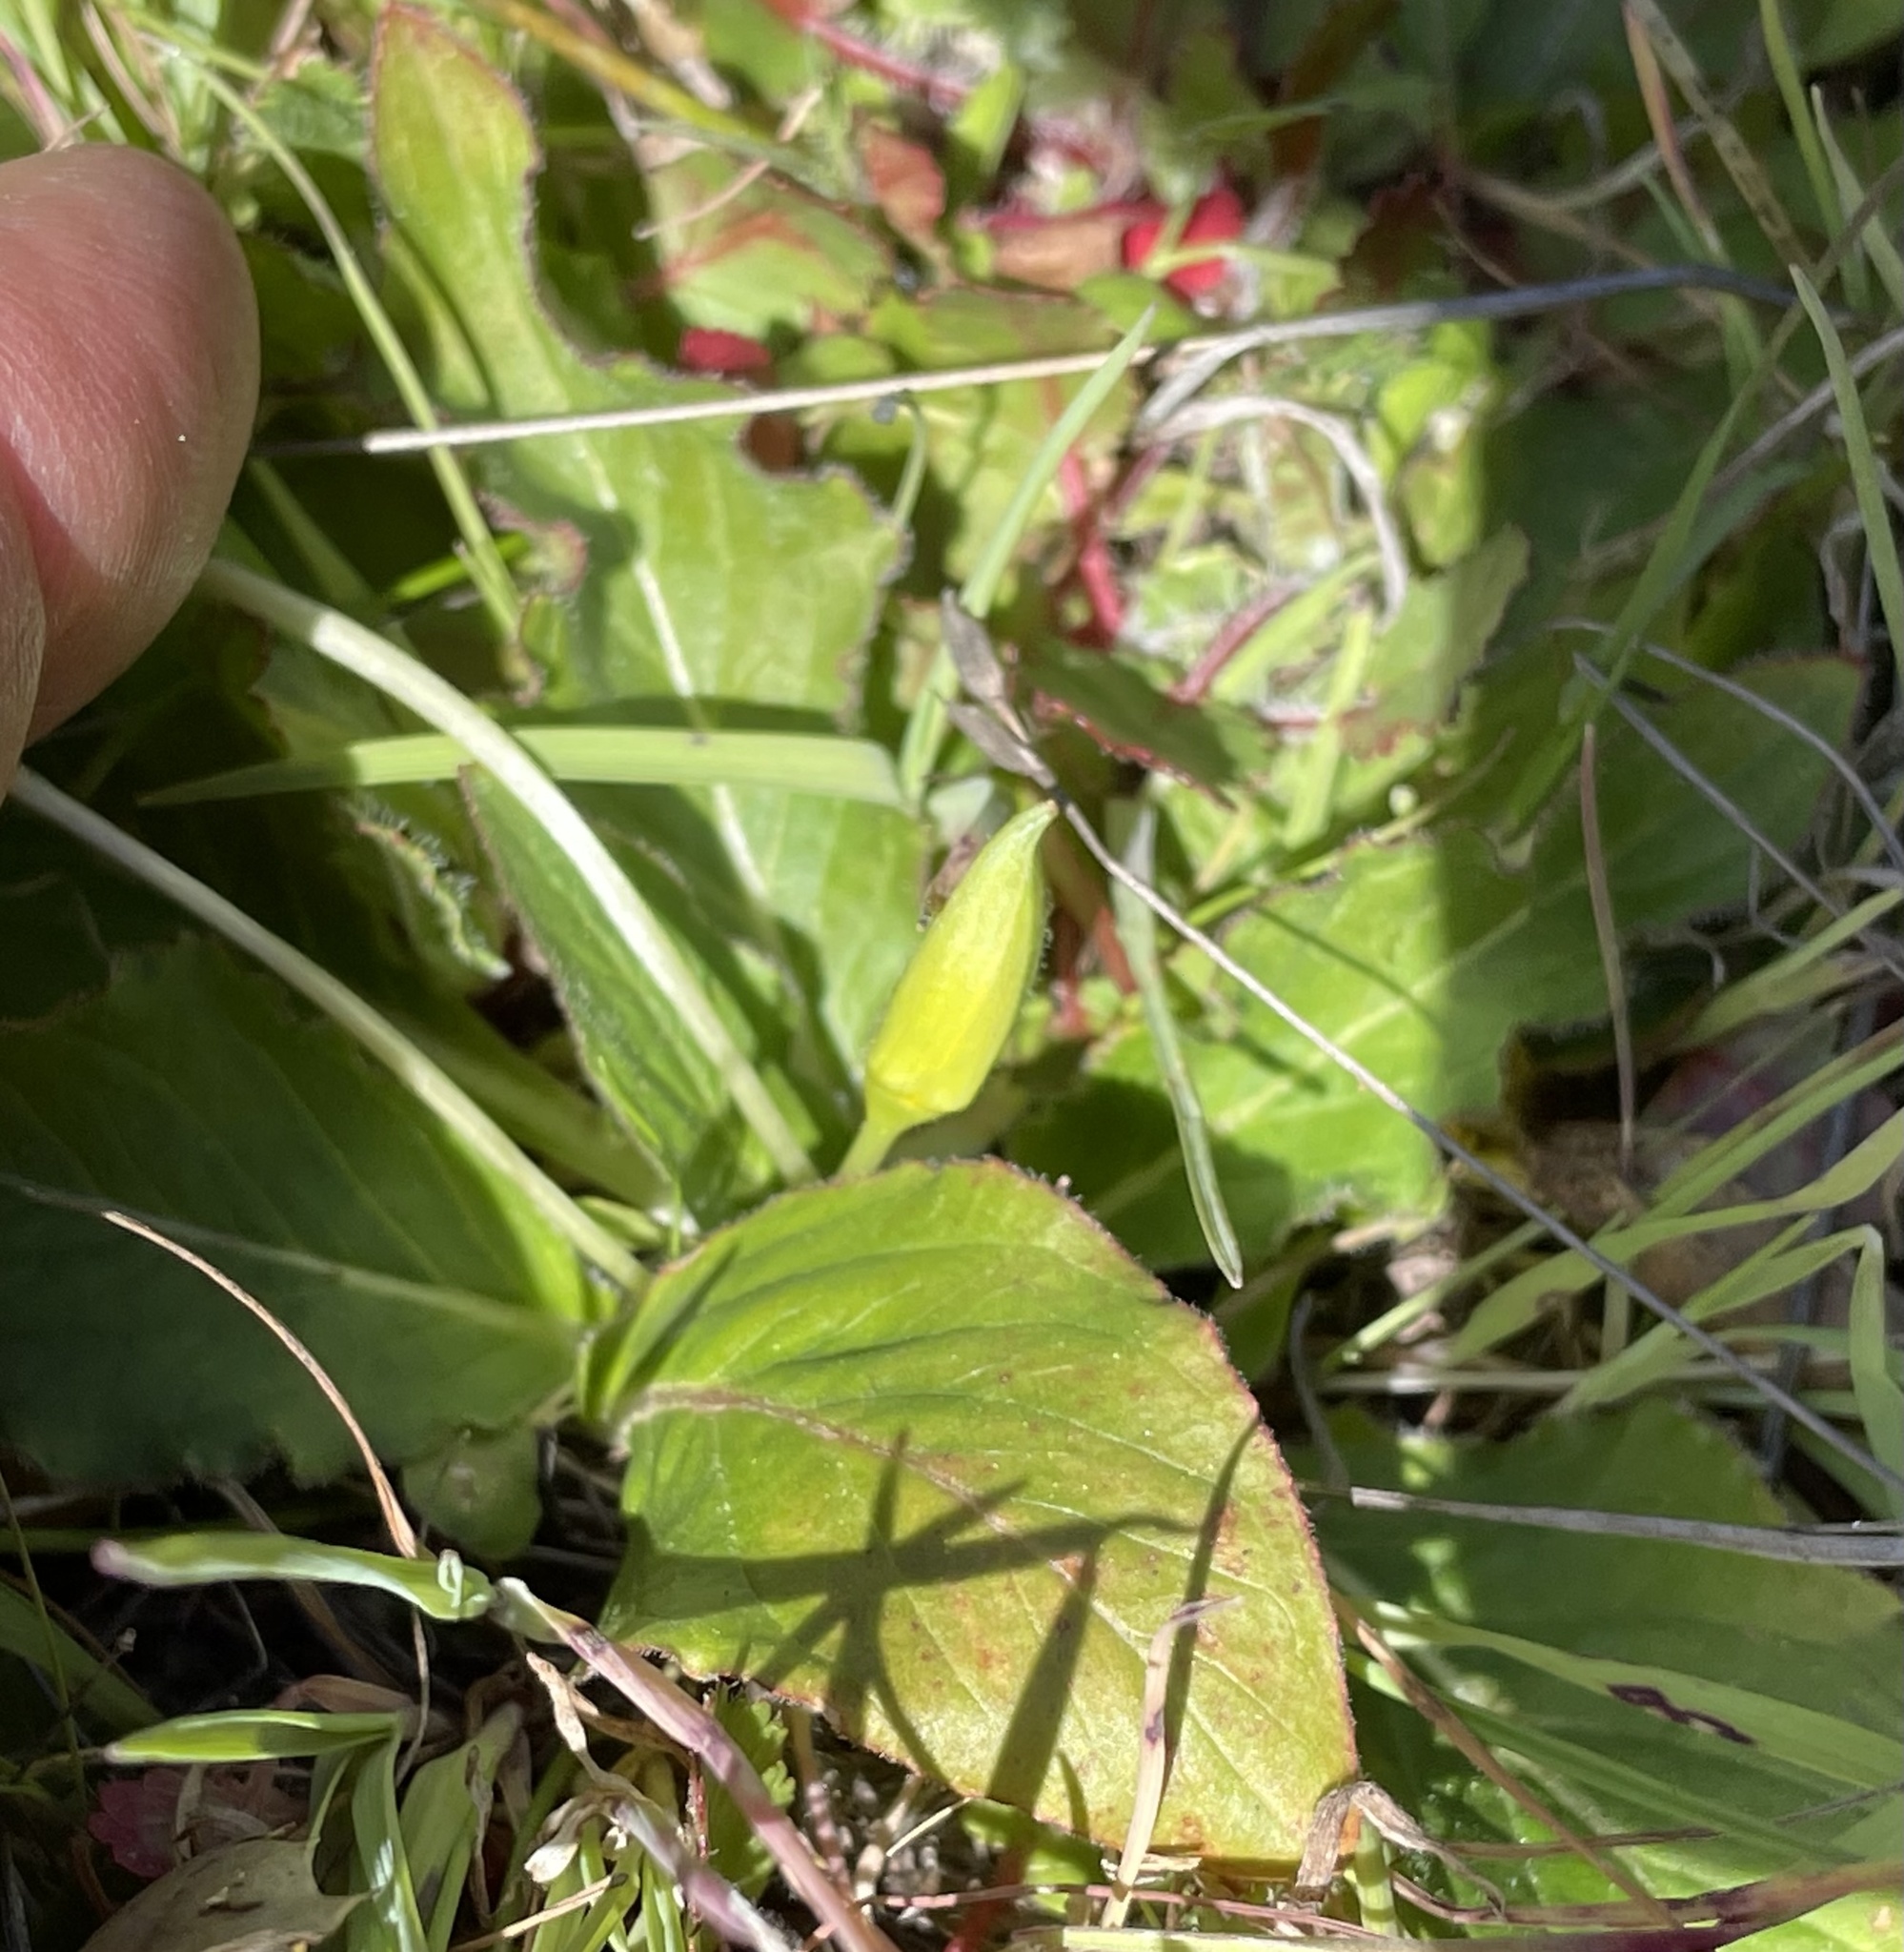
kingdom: Plantae
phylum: Tracheophyta
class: Magnoliopsida
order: Myrtales
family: Onagraceae
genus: Taraxia
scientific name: Taraxia ovata
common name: Goldeneggs
